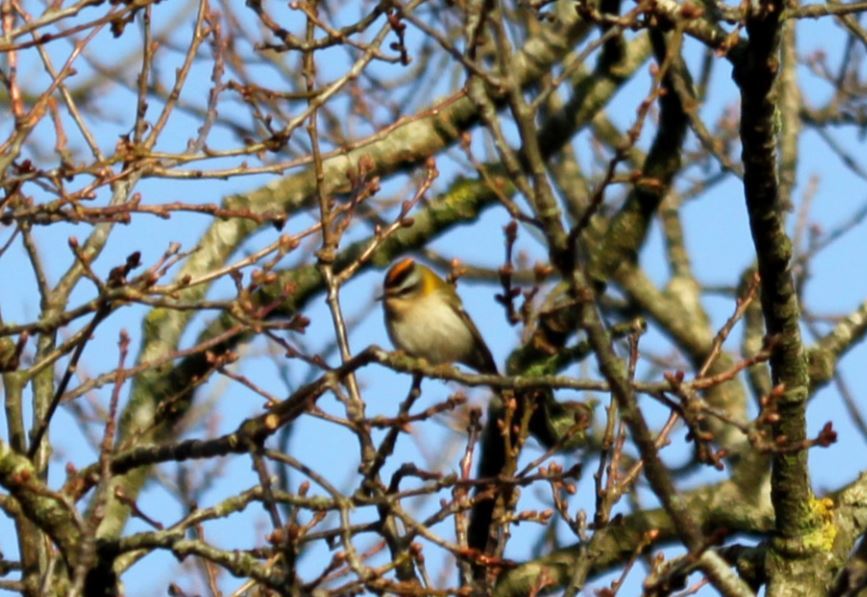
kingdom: Animalia
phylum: Chordata
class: Aves
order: Passeriformes
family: Regulidae
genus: Regulus
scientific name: Regulus ignicapilla
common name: Firecrest
